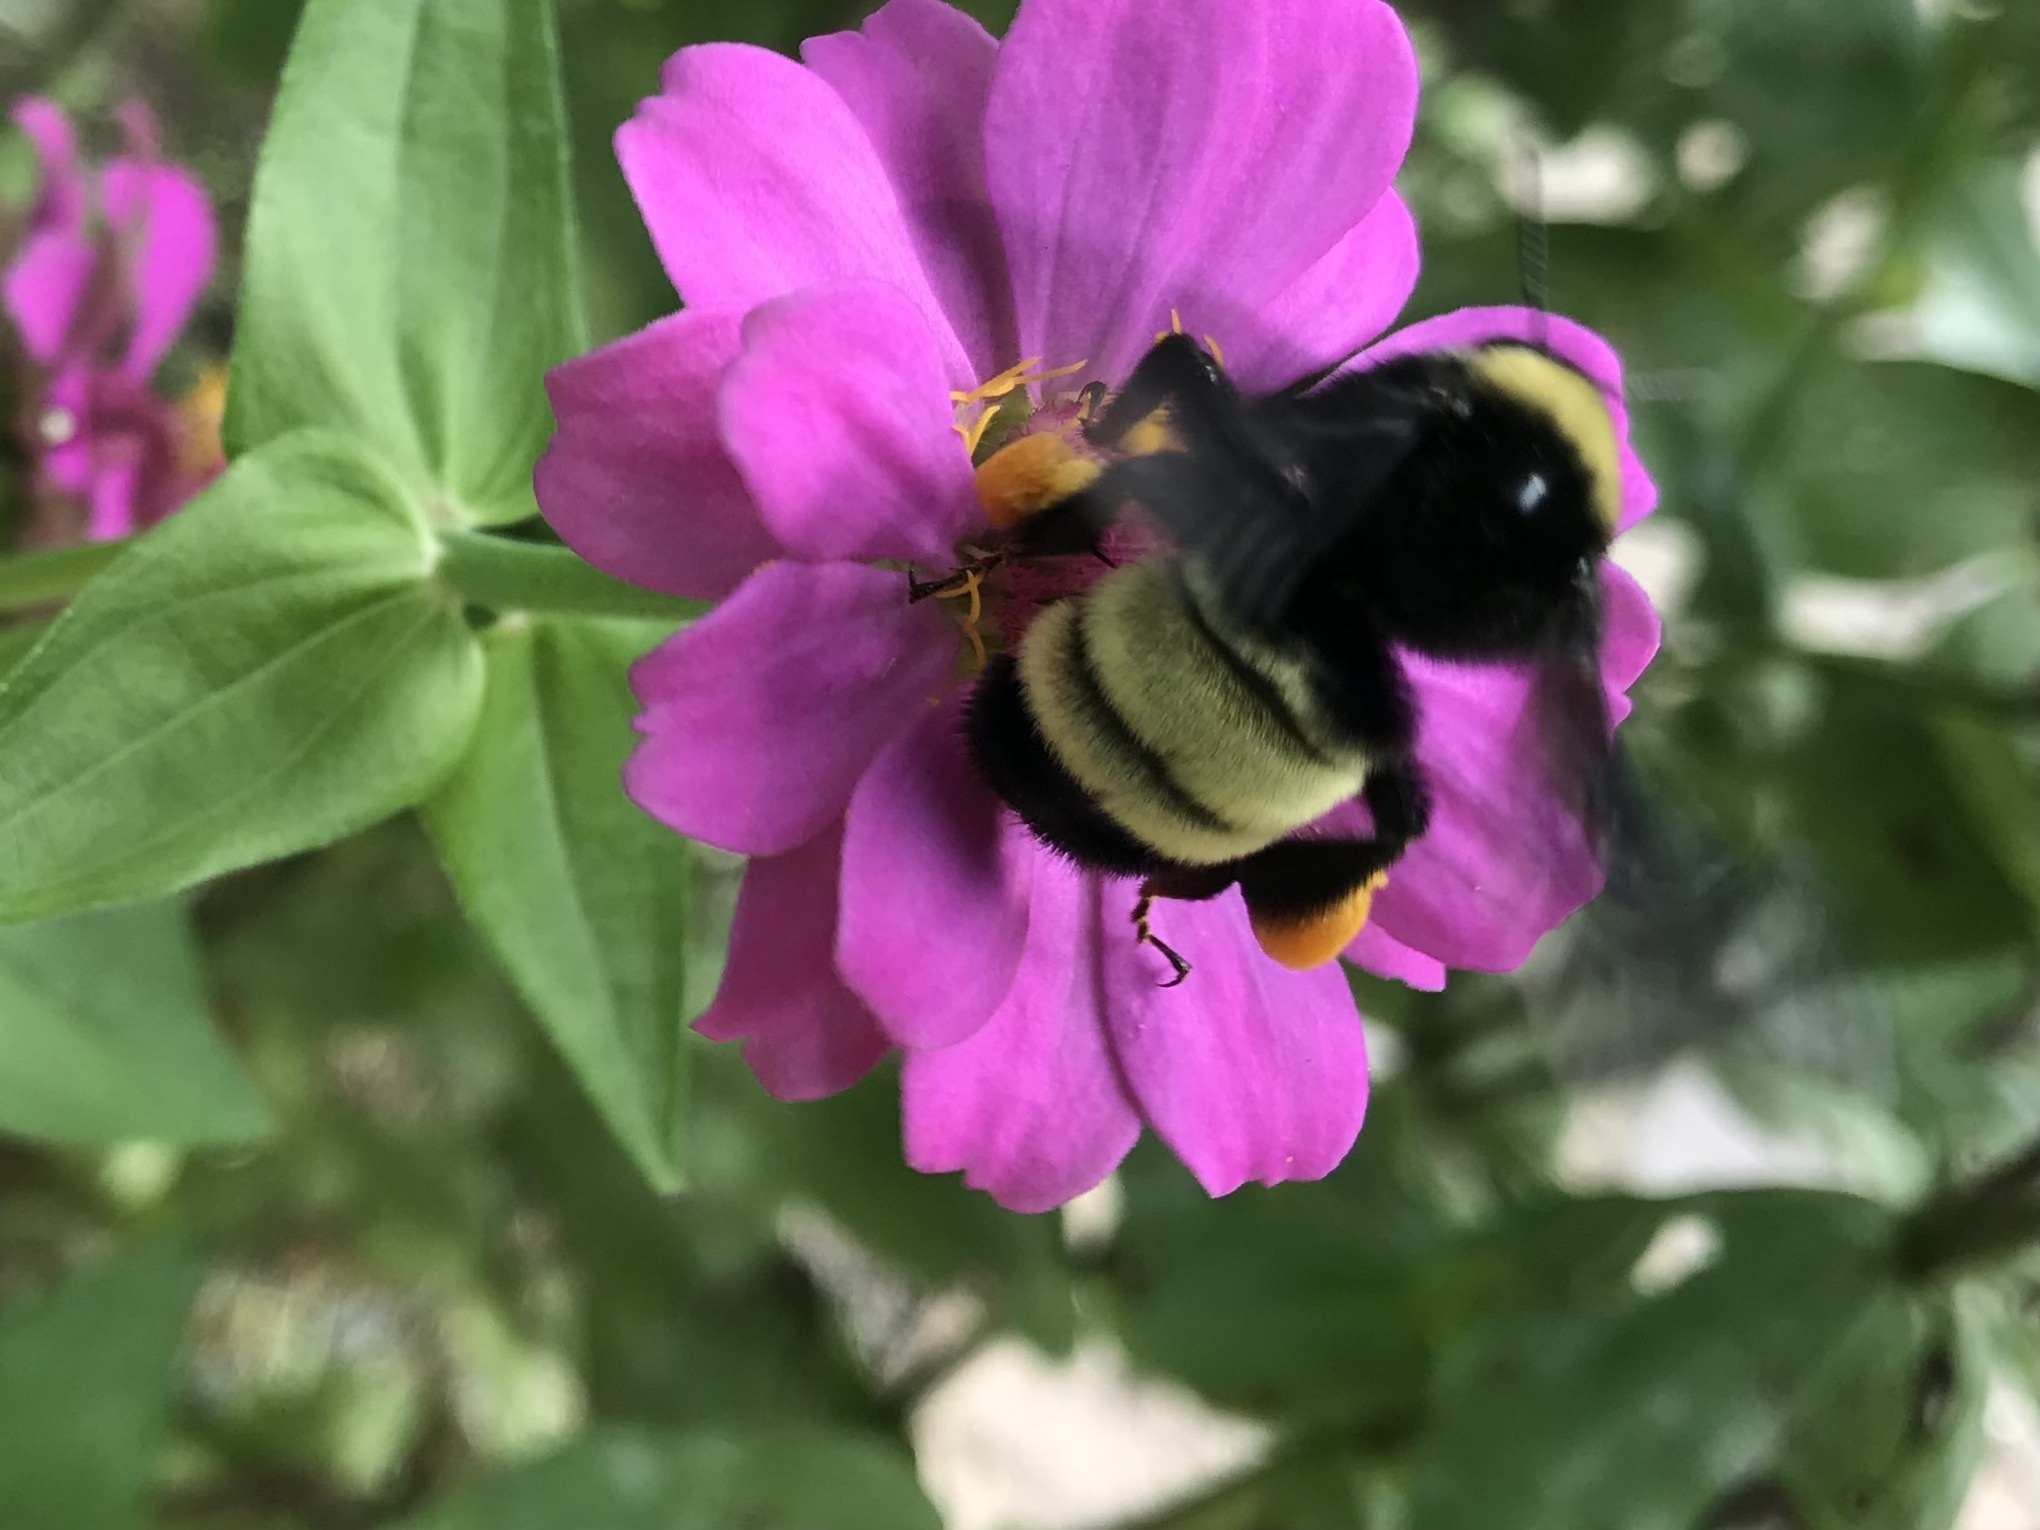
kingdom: Animalia
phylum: Arthropoda
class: Insecta
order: Hymenoptera
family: Apidae
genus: Bombus
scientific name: Bombus pensylvanicus
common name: Bumble bee
